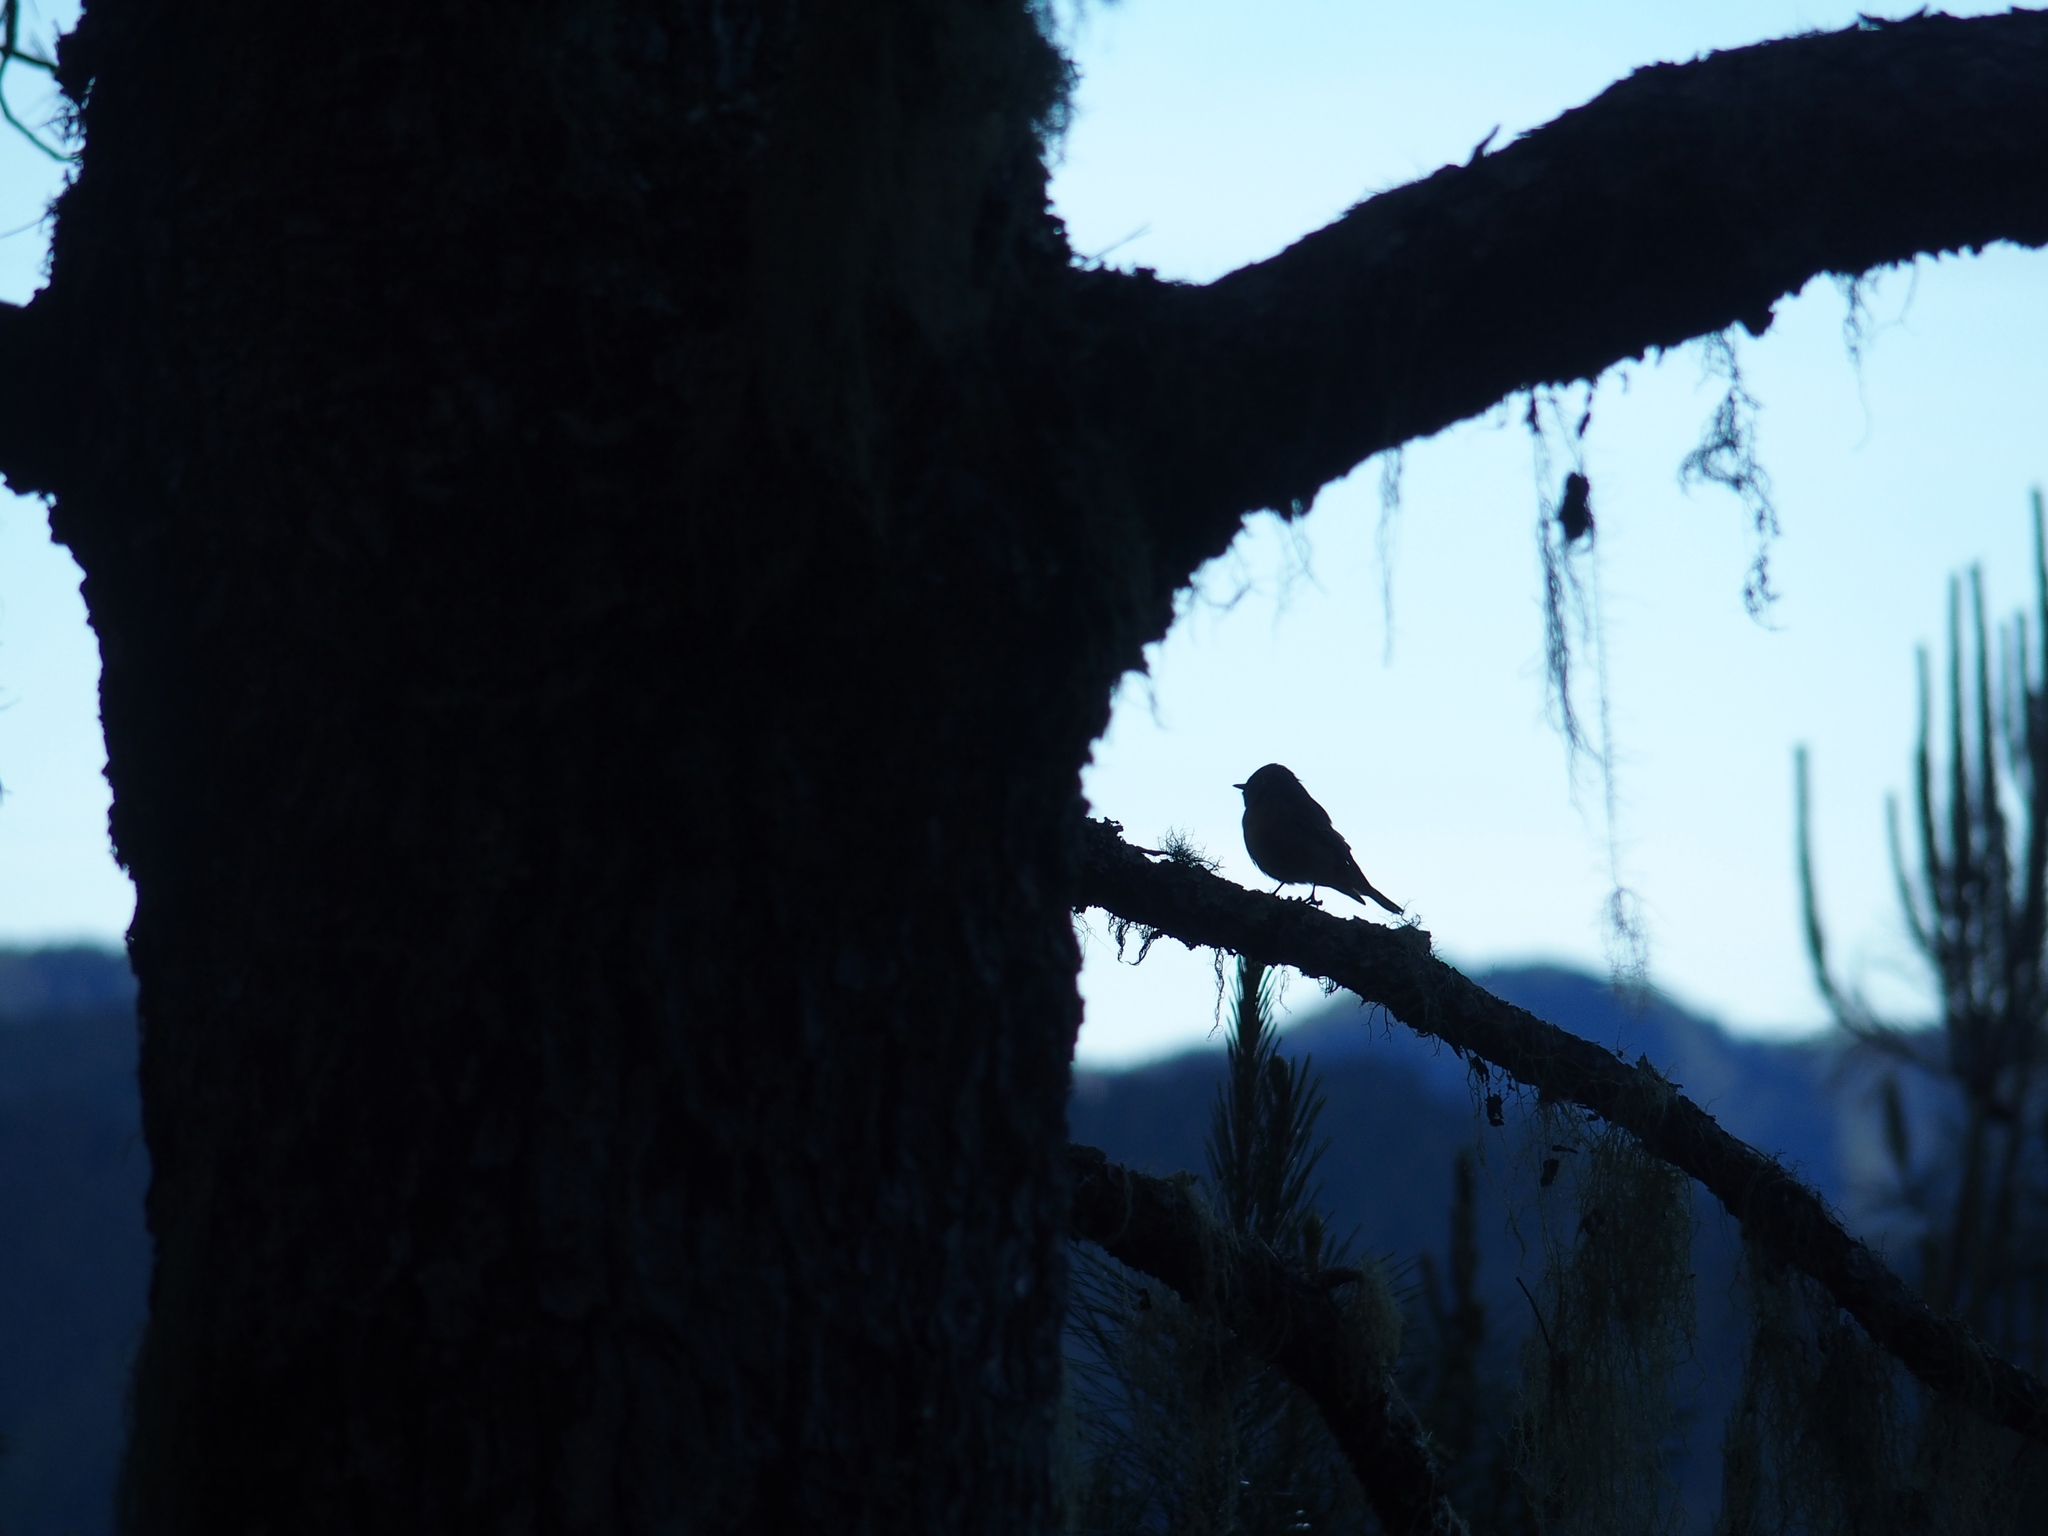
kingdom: Animalia
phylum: Chordata
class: Aves
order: Passeriformes
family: Muscicapidae
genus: Muscicapa
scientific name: Muscicapa ferruginea
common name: Ferruginous flycatcher
